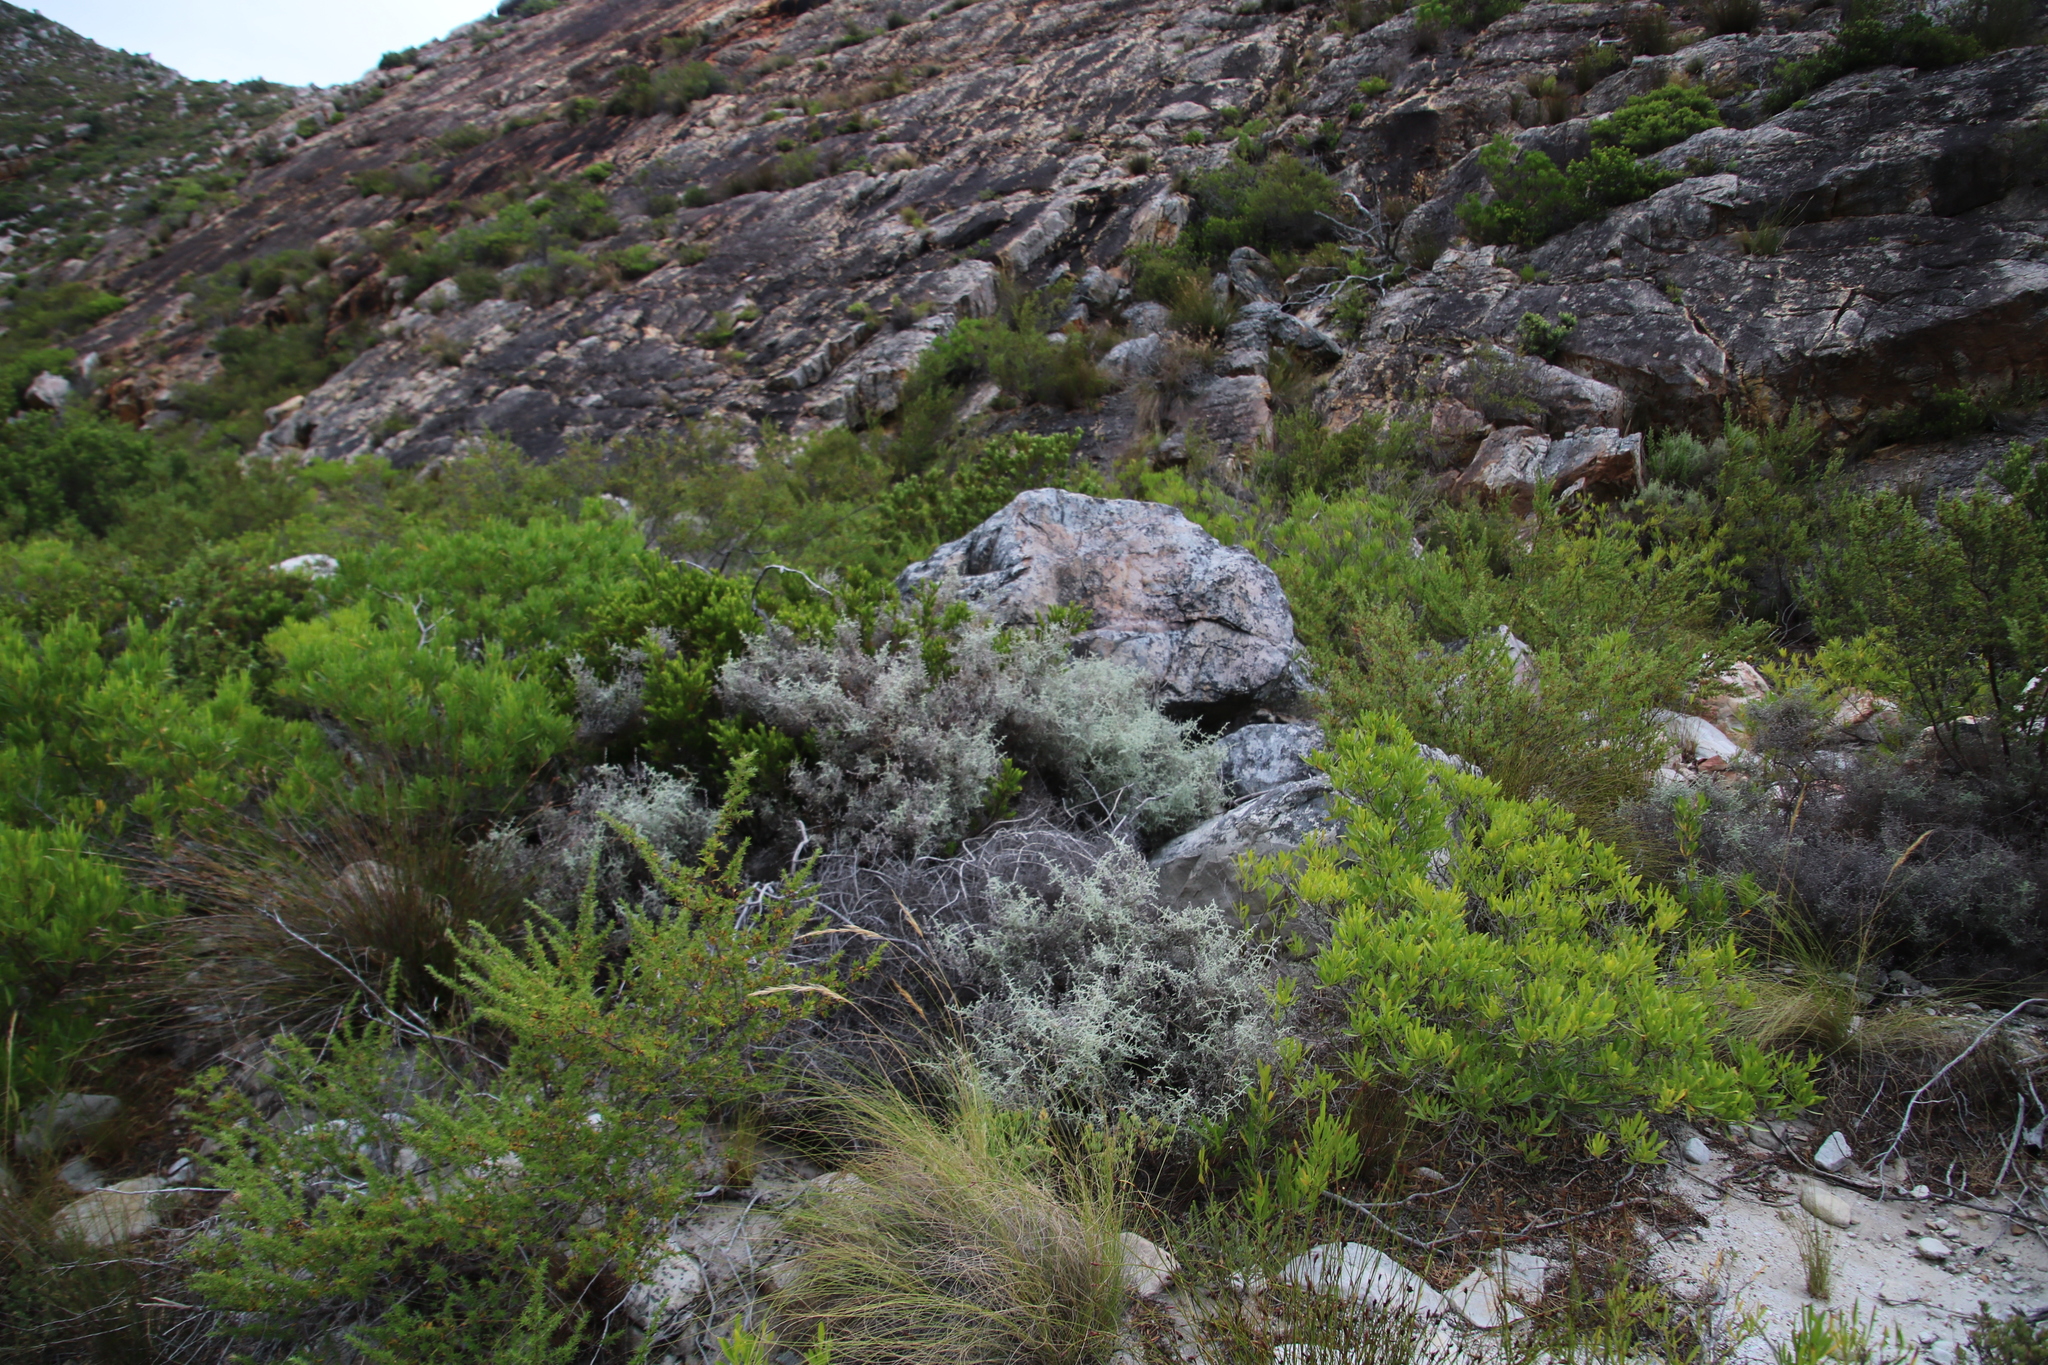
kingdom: Plantae
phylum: Tracheophyta
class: Magnoliopsida
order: Asterales
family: Asteraceae
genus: Seriphium
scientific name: Seriphium plumosum
